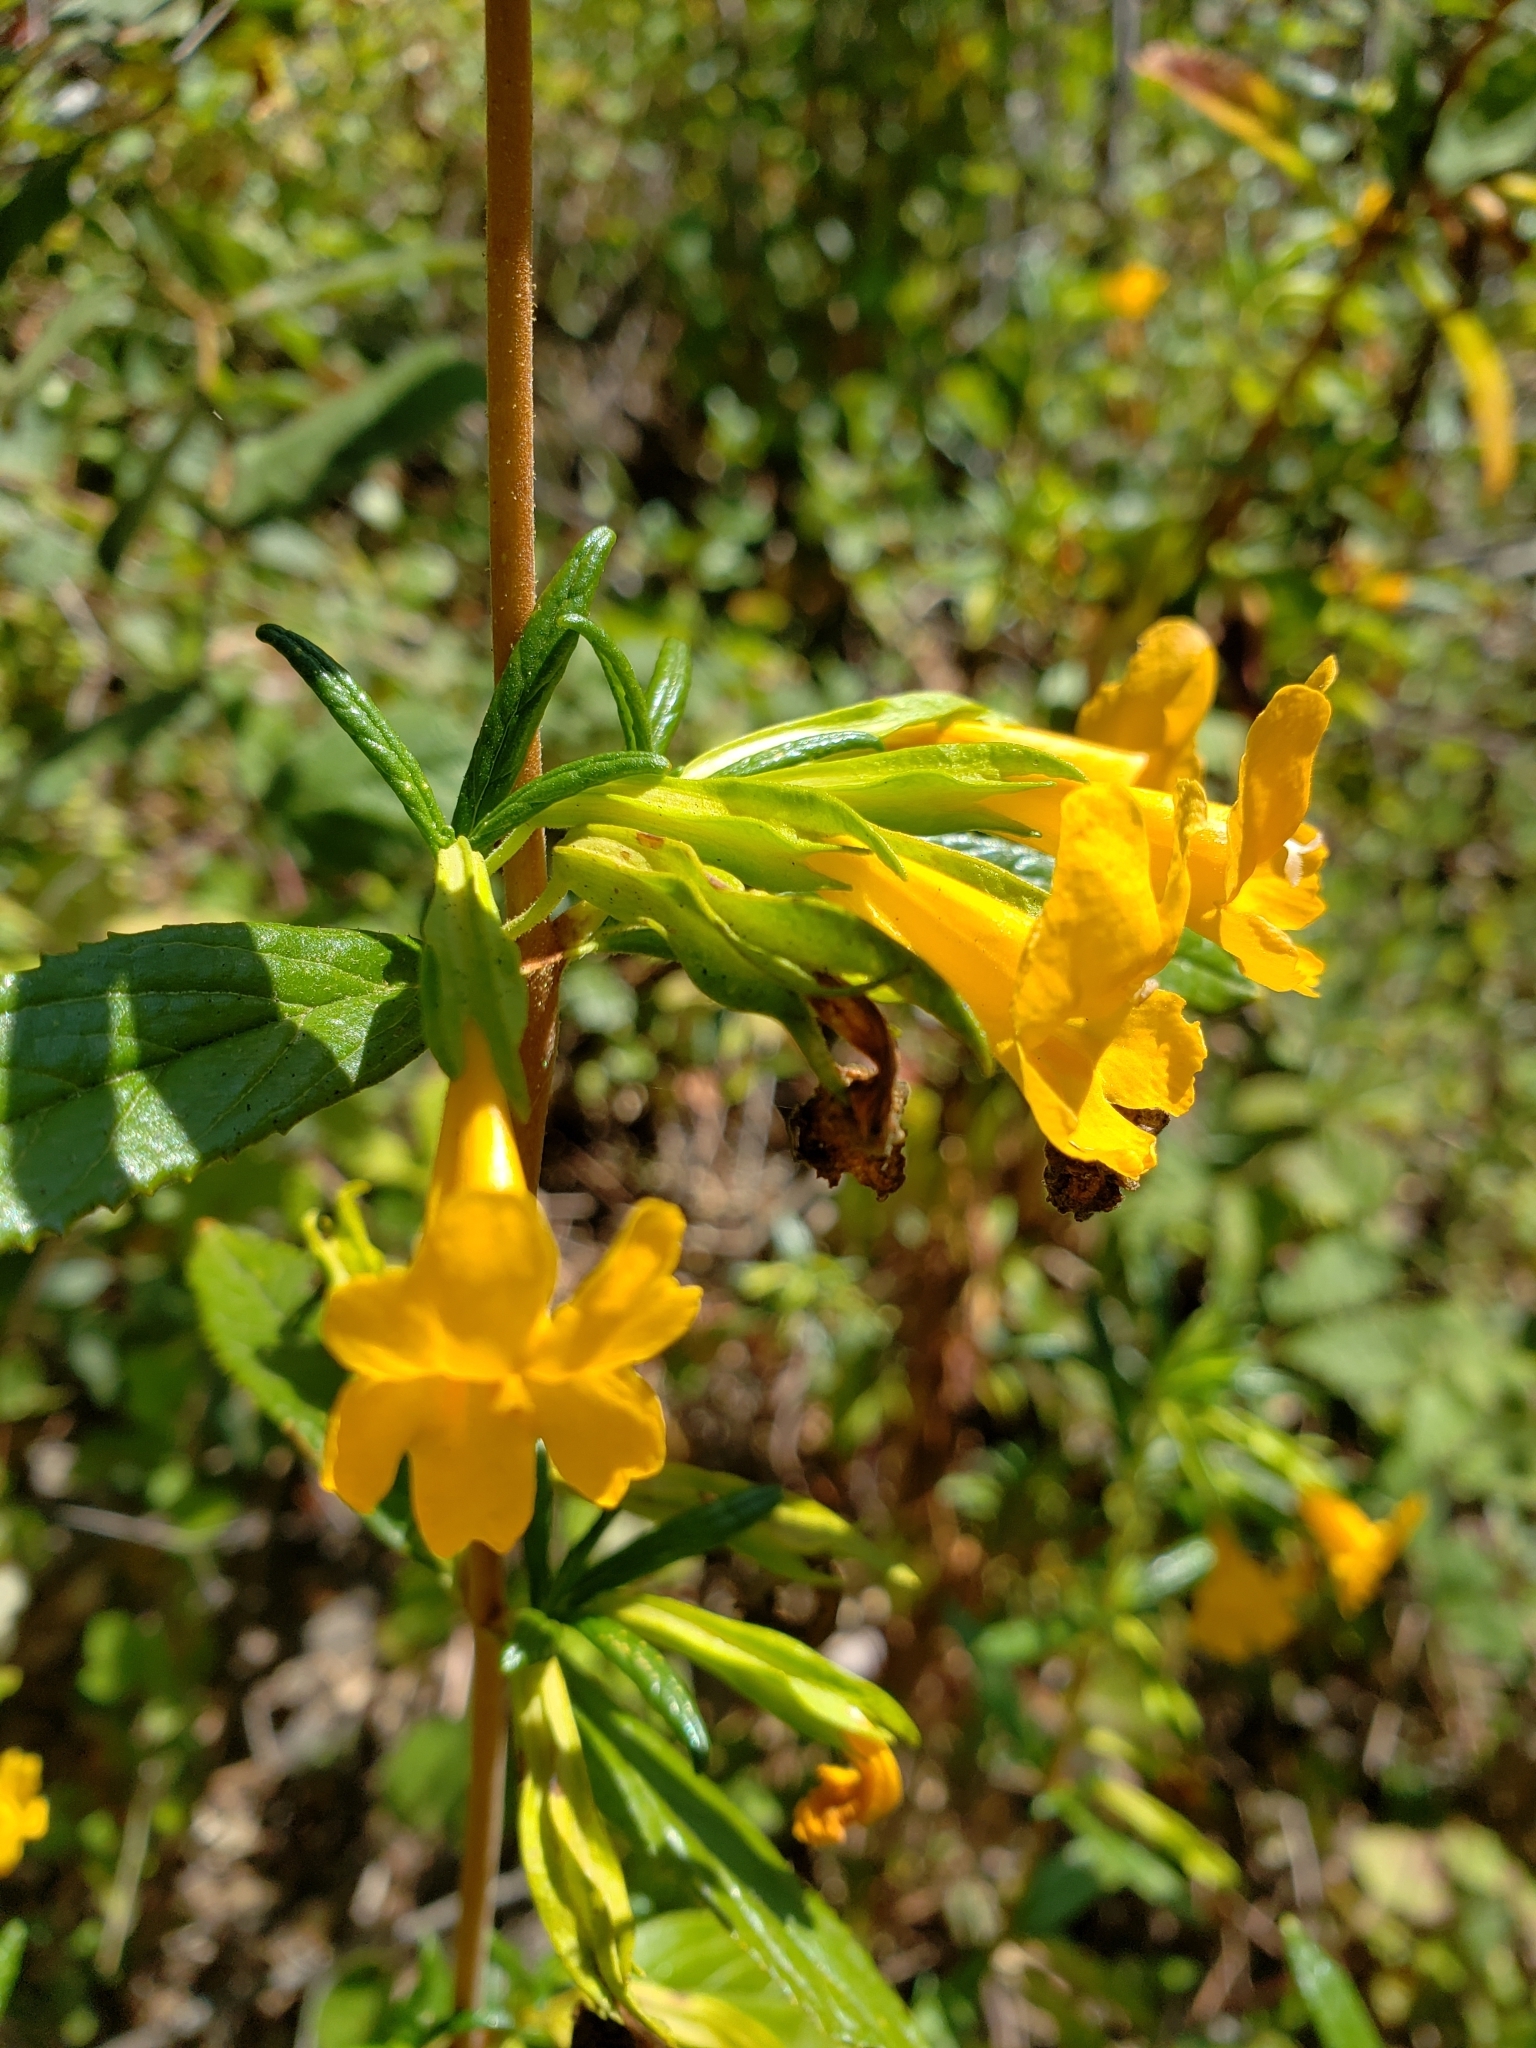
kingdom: Plantae
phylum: Tracheophyta
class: Magnoliopsida
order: Lamiales
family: Phrymaceae
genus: Diplacus
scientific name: Diplacus aurantiacus
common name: Bush monkey-flower
